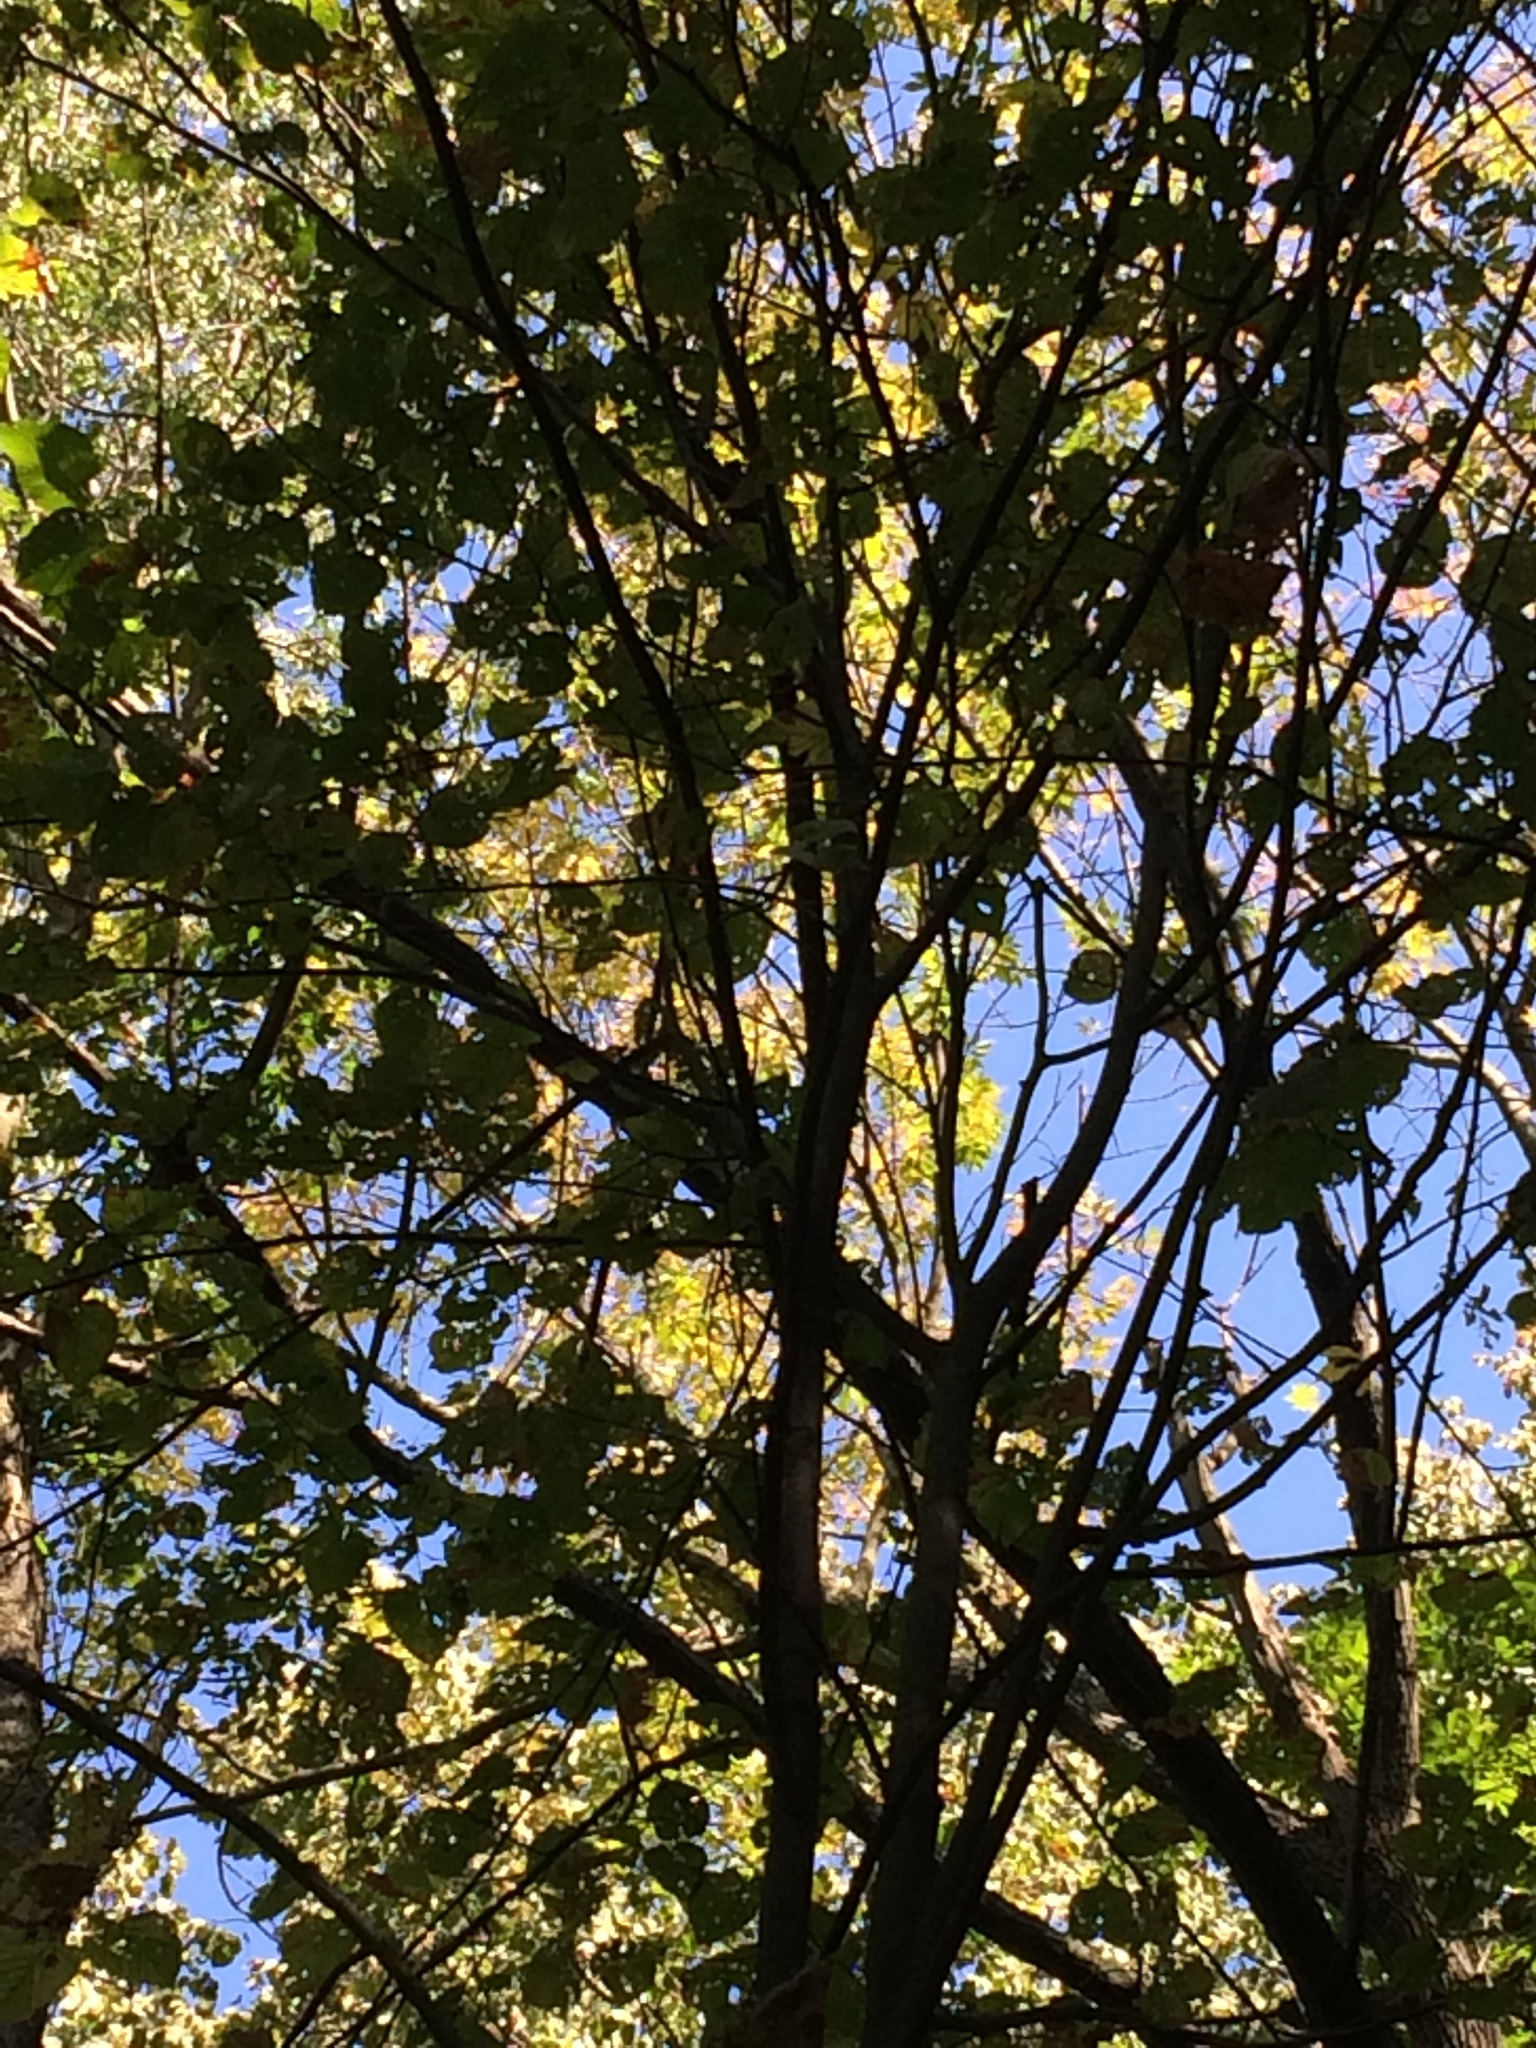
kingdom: Plantae
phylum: Tracheophyta
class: Magnoliopsida
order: Malvales
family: Malvaceae
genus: Tilia
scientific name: Tilia americana
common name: Basswood
